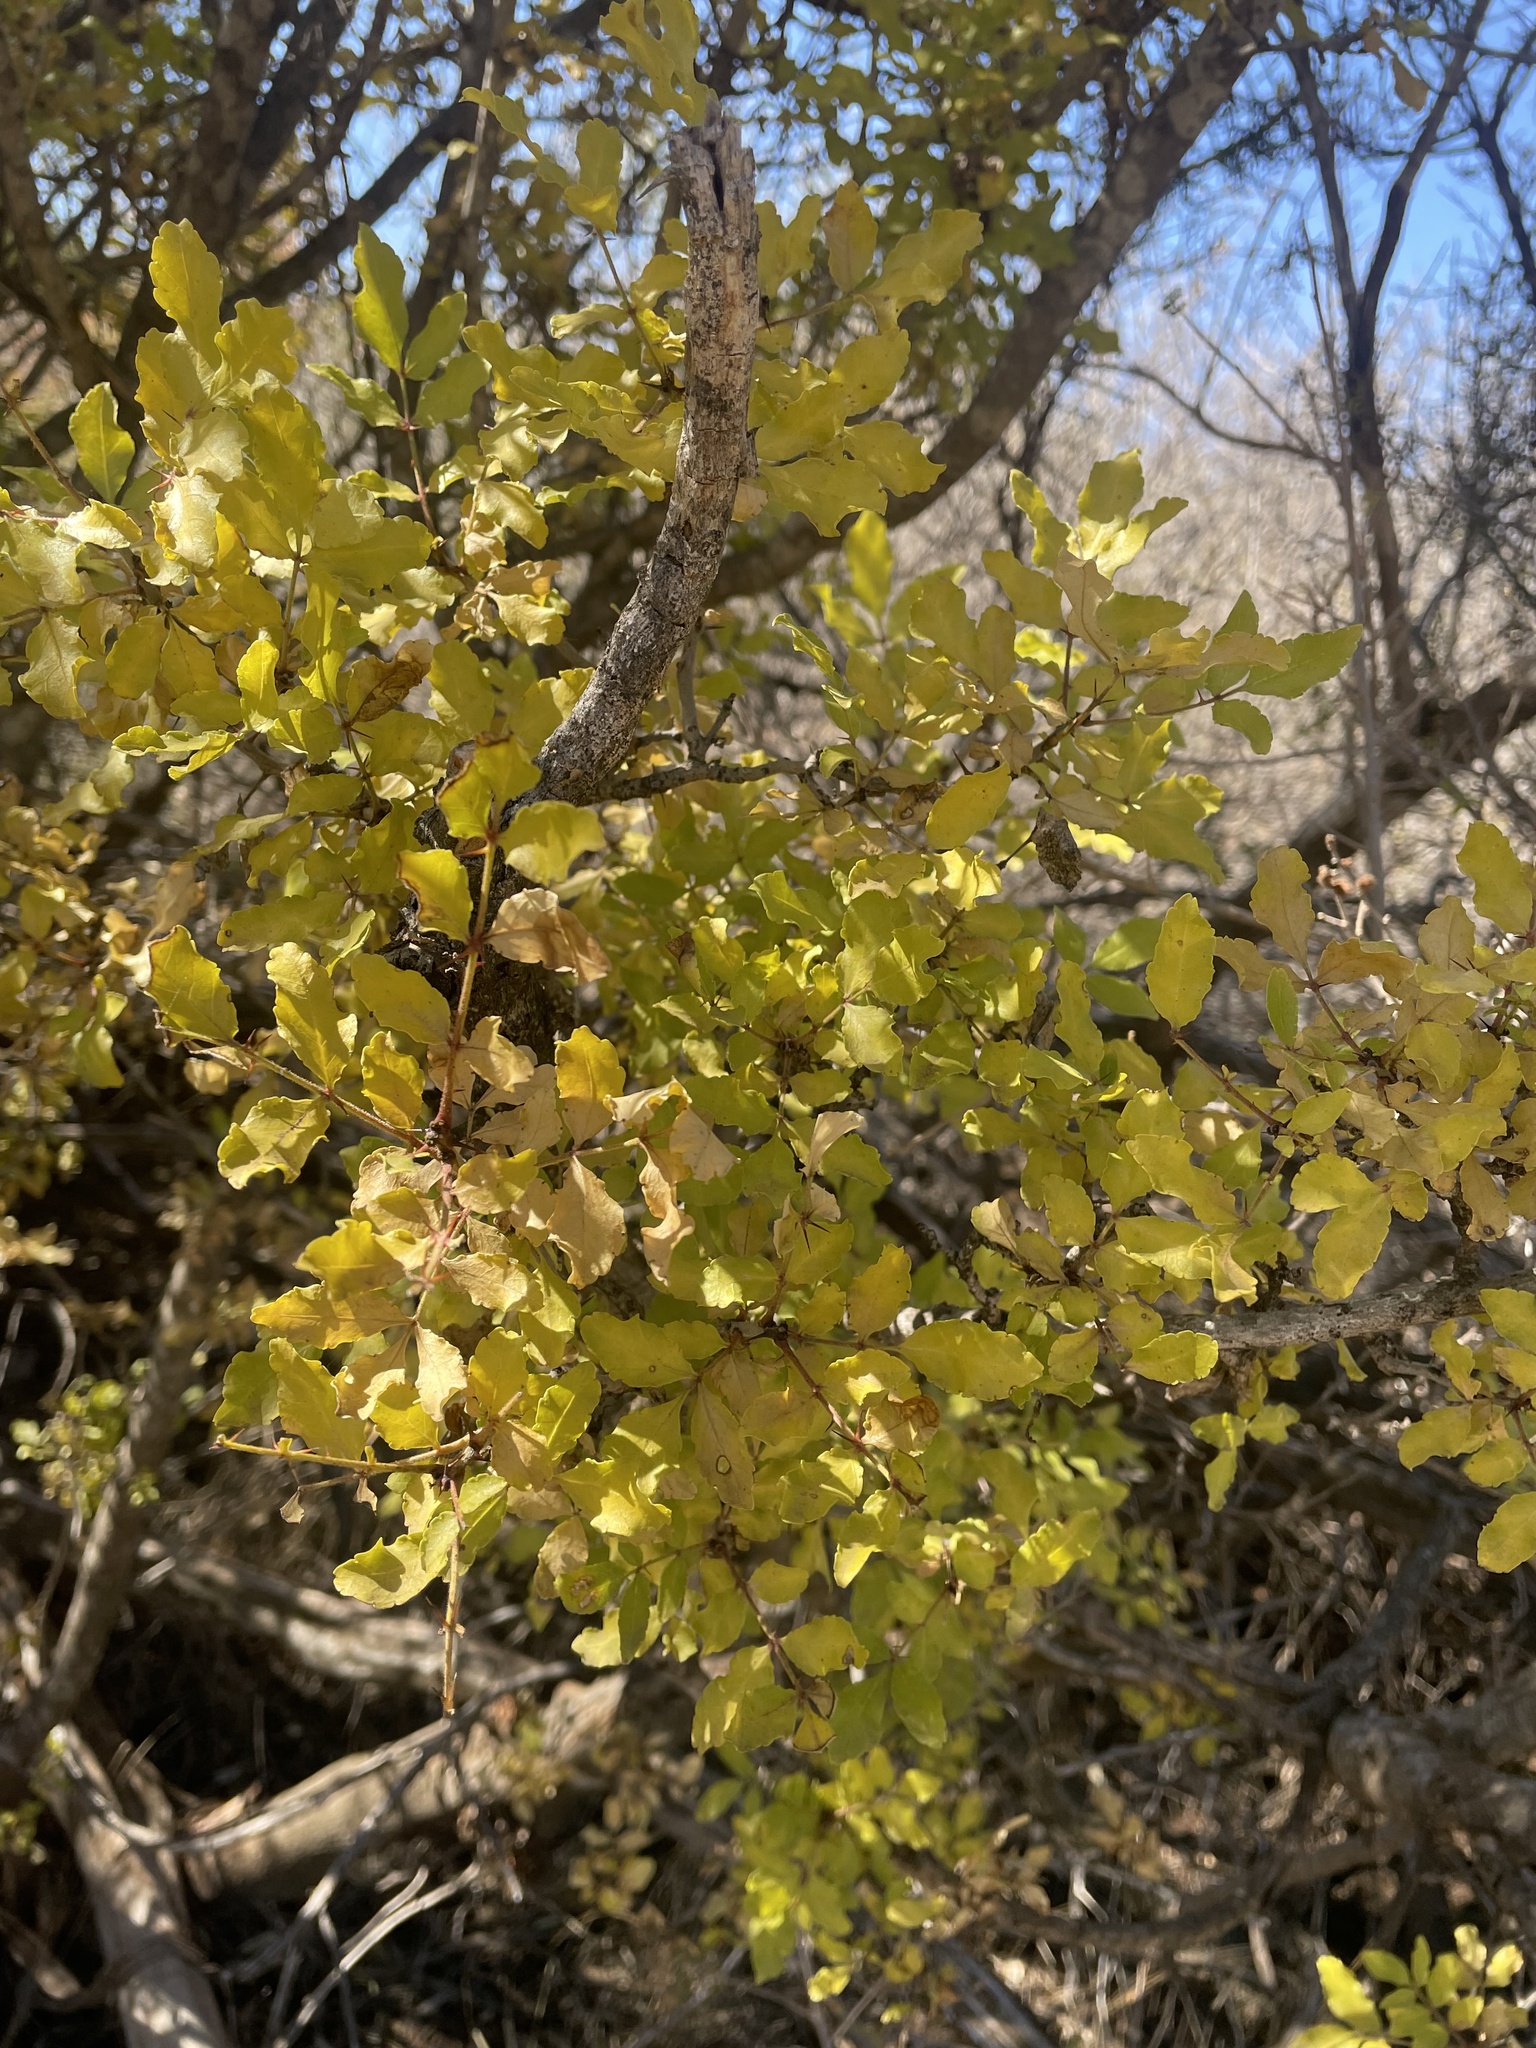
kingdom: Plantae
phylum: Tracheophyta
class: Magnoliopsida
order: Sapindales
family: Rutaceae
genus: Zanthoxylum
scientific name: Zanthoxylum clava-herculis
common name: Hercules'-club
